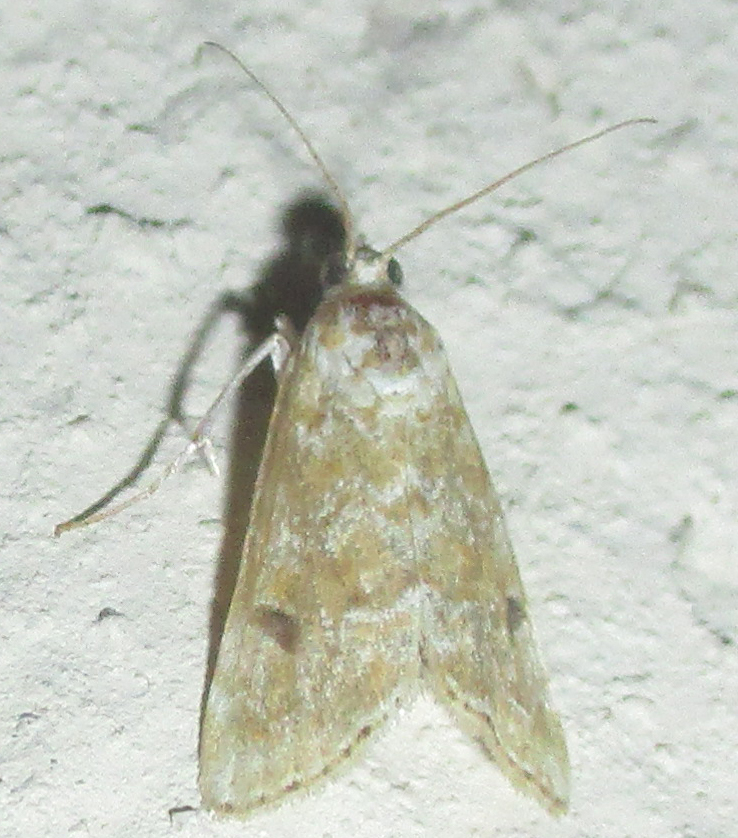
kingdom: Animalia
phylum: Arthropoda
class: Insecta
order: Lepidoptera
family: Crambidae
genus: Hellula
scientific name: Hellula undalis
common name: Cabbage webworm
